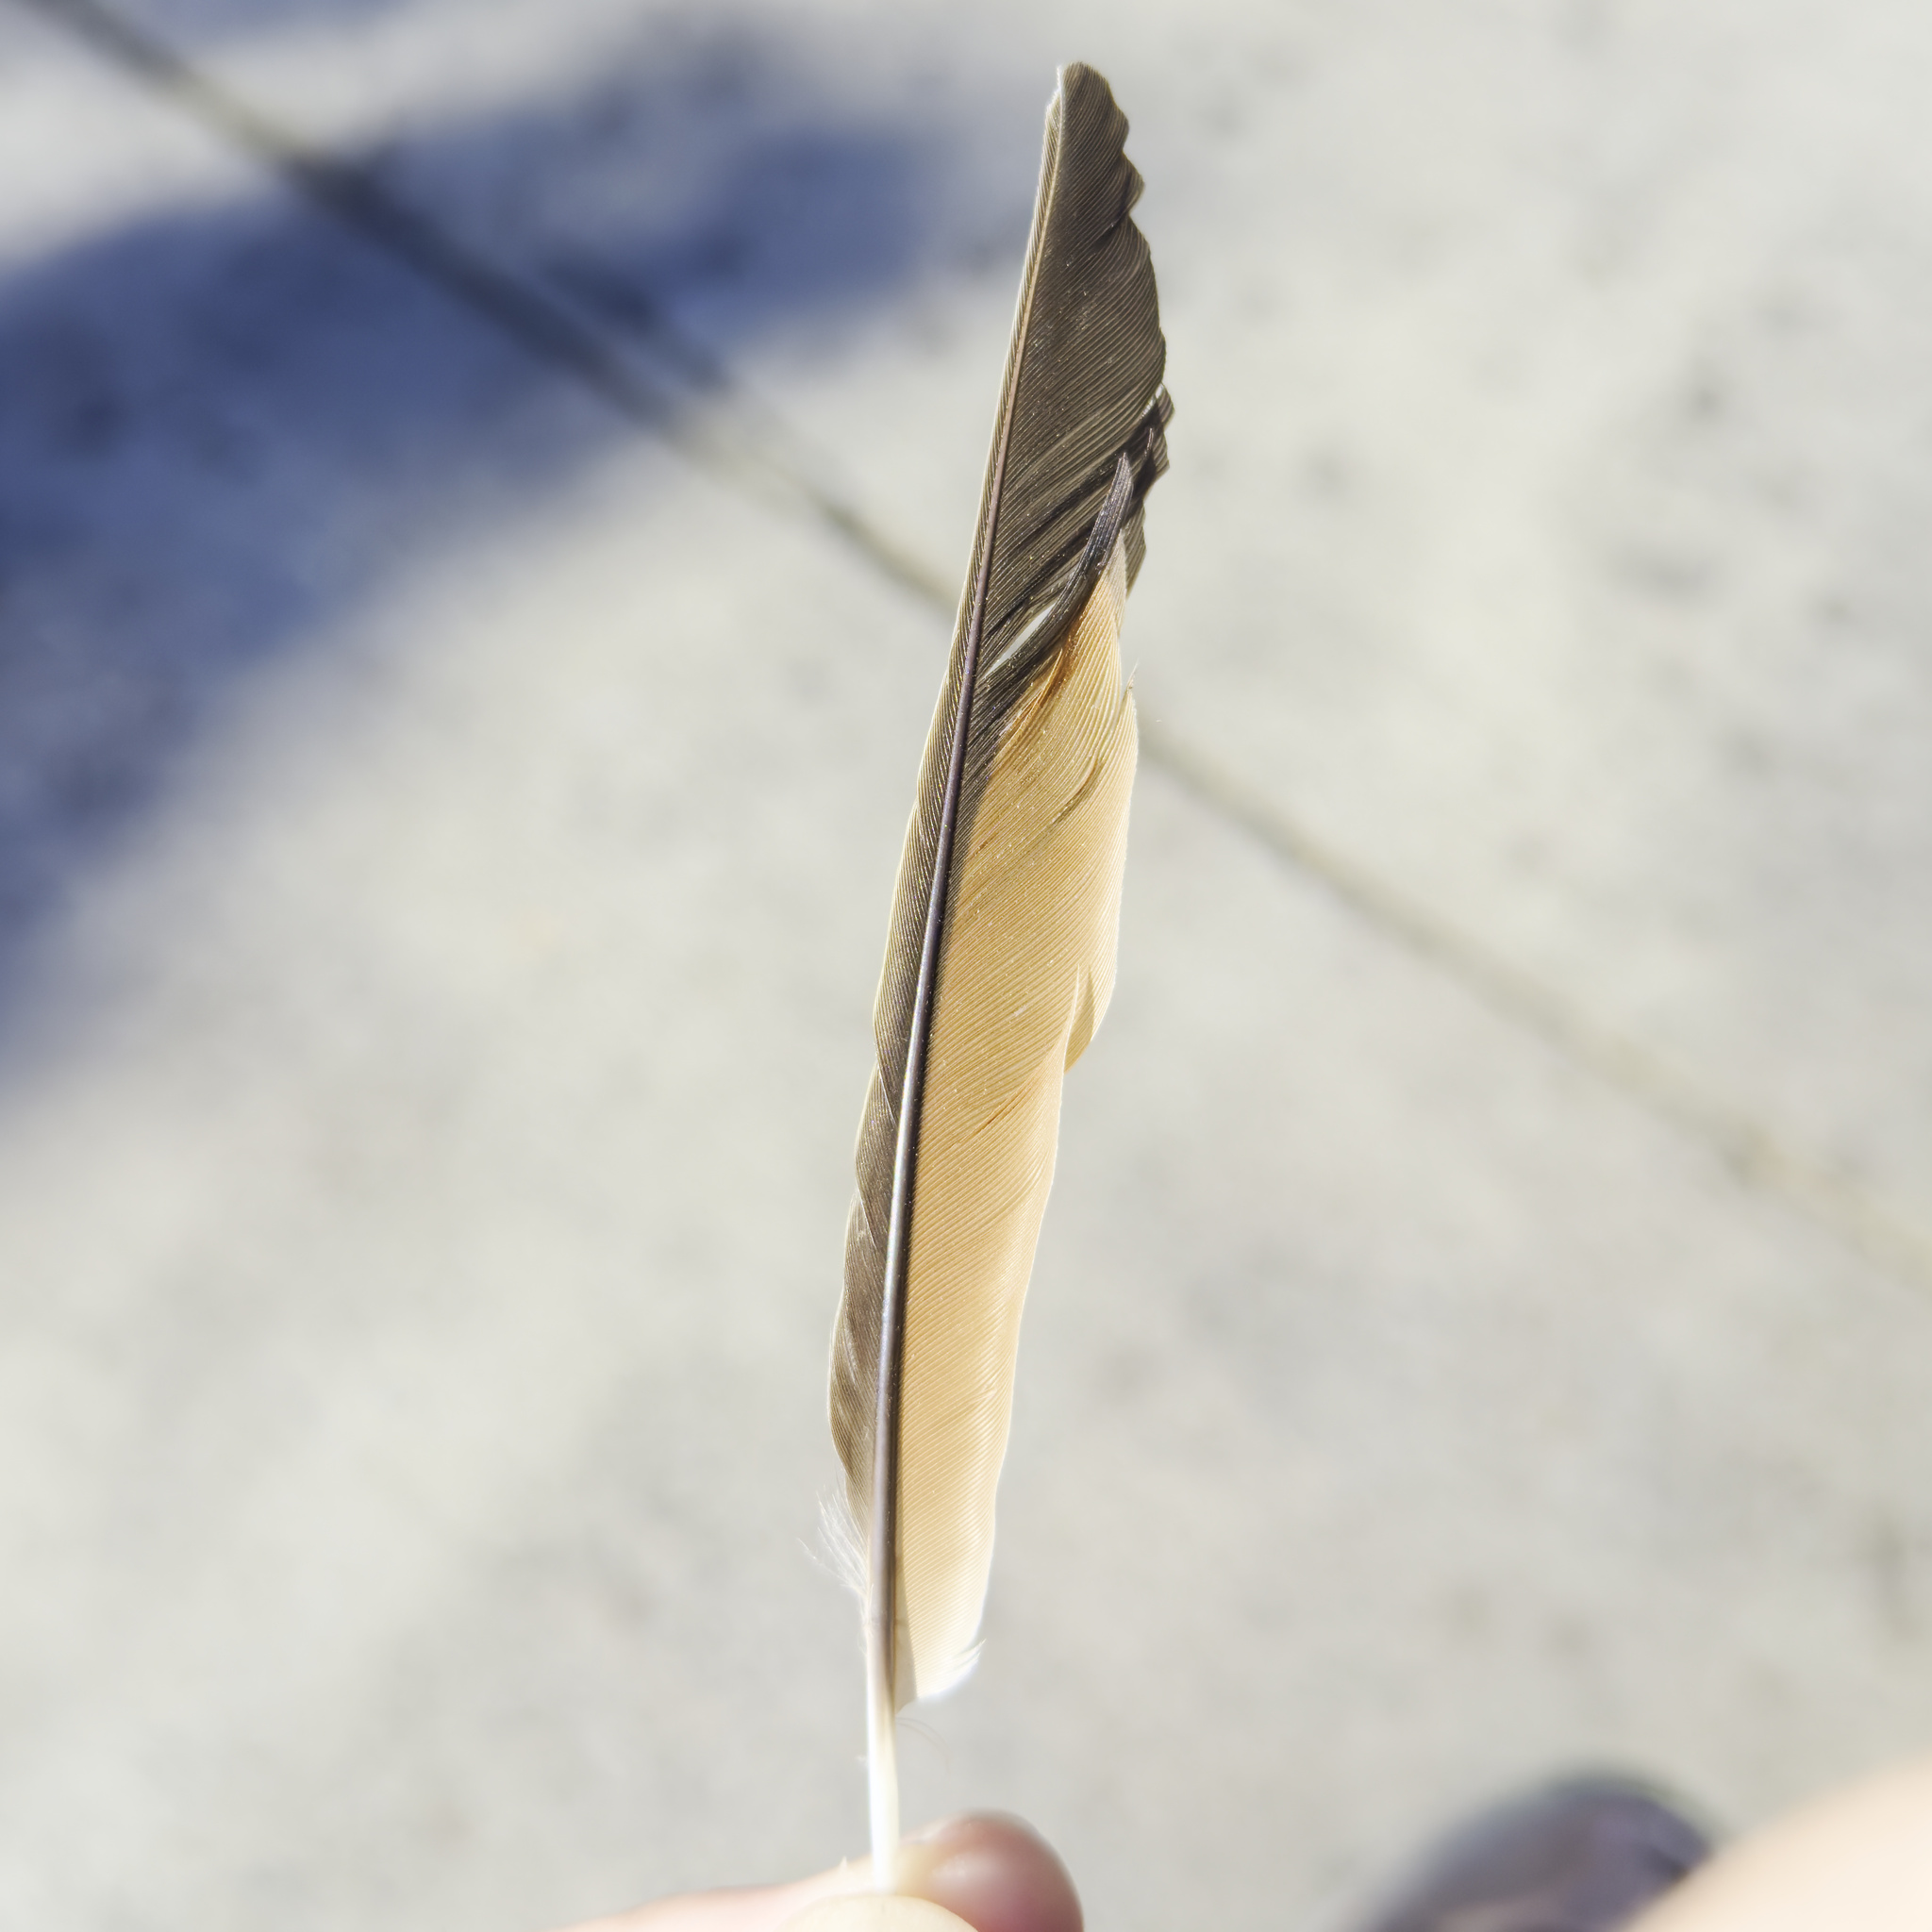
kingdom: Animalia
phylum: Chordata
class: Aves
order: Passeriformes
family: Meliphagidae
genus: Anthochaera
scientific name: Anthochaera chrysoptera
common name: Little wattlebird
